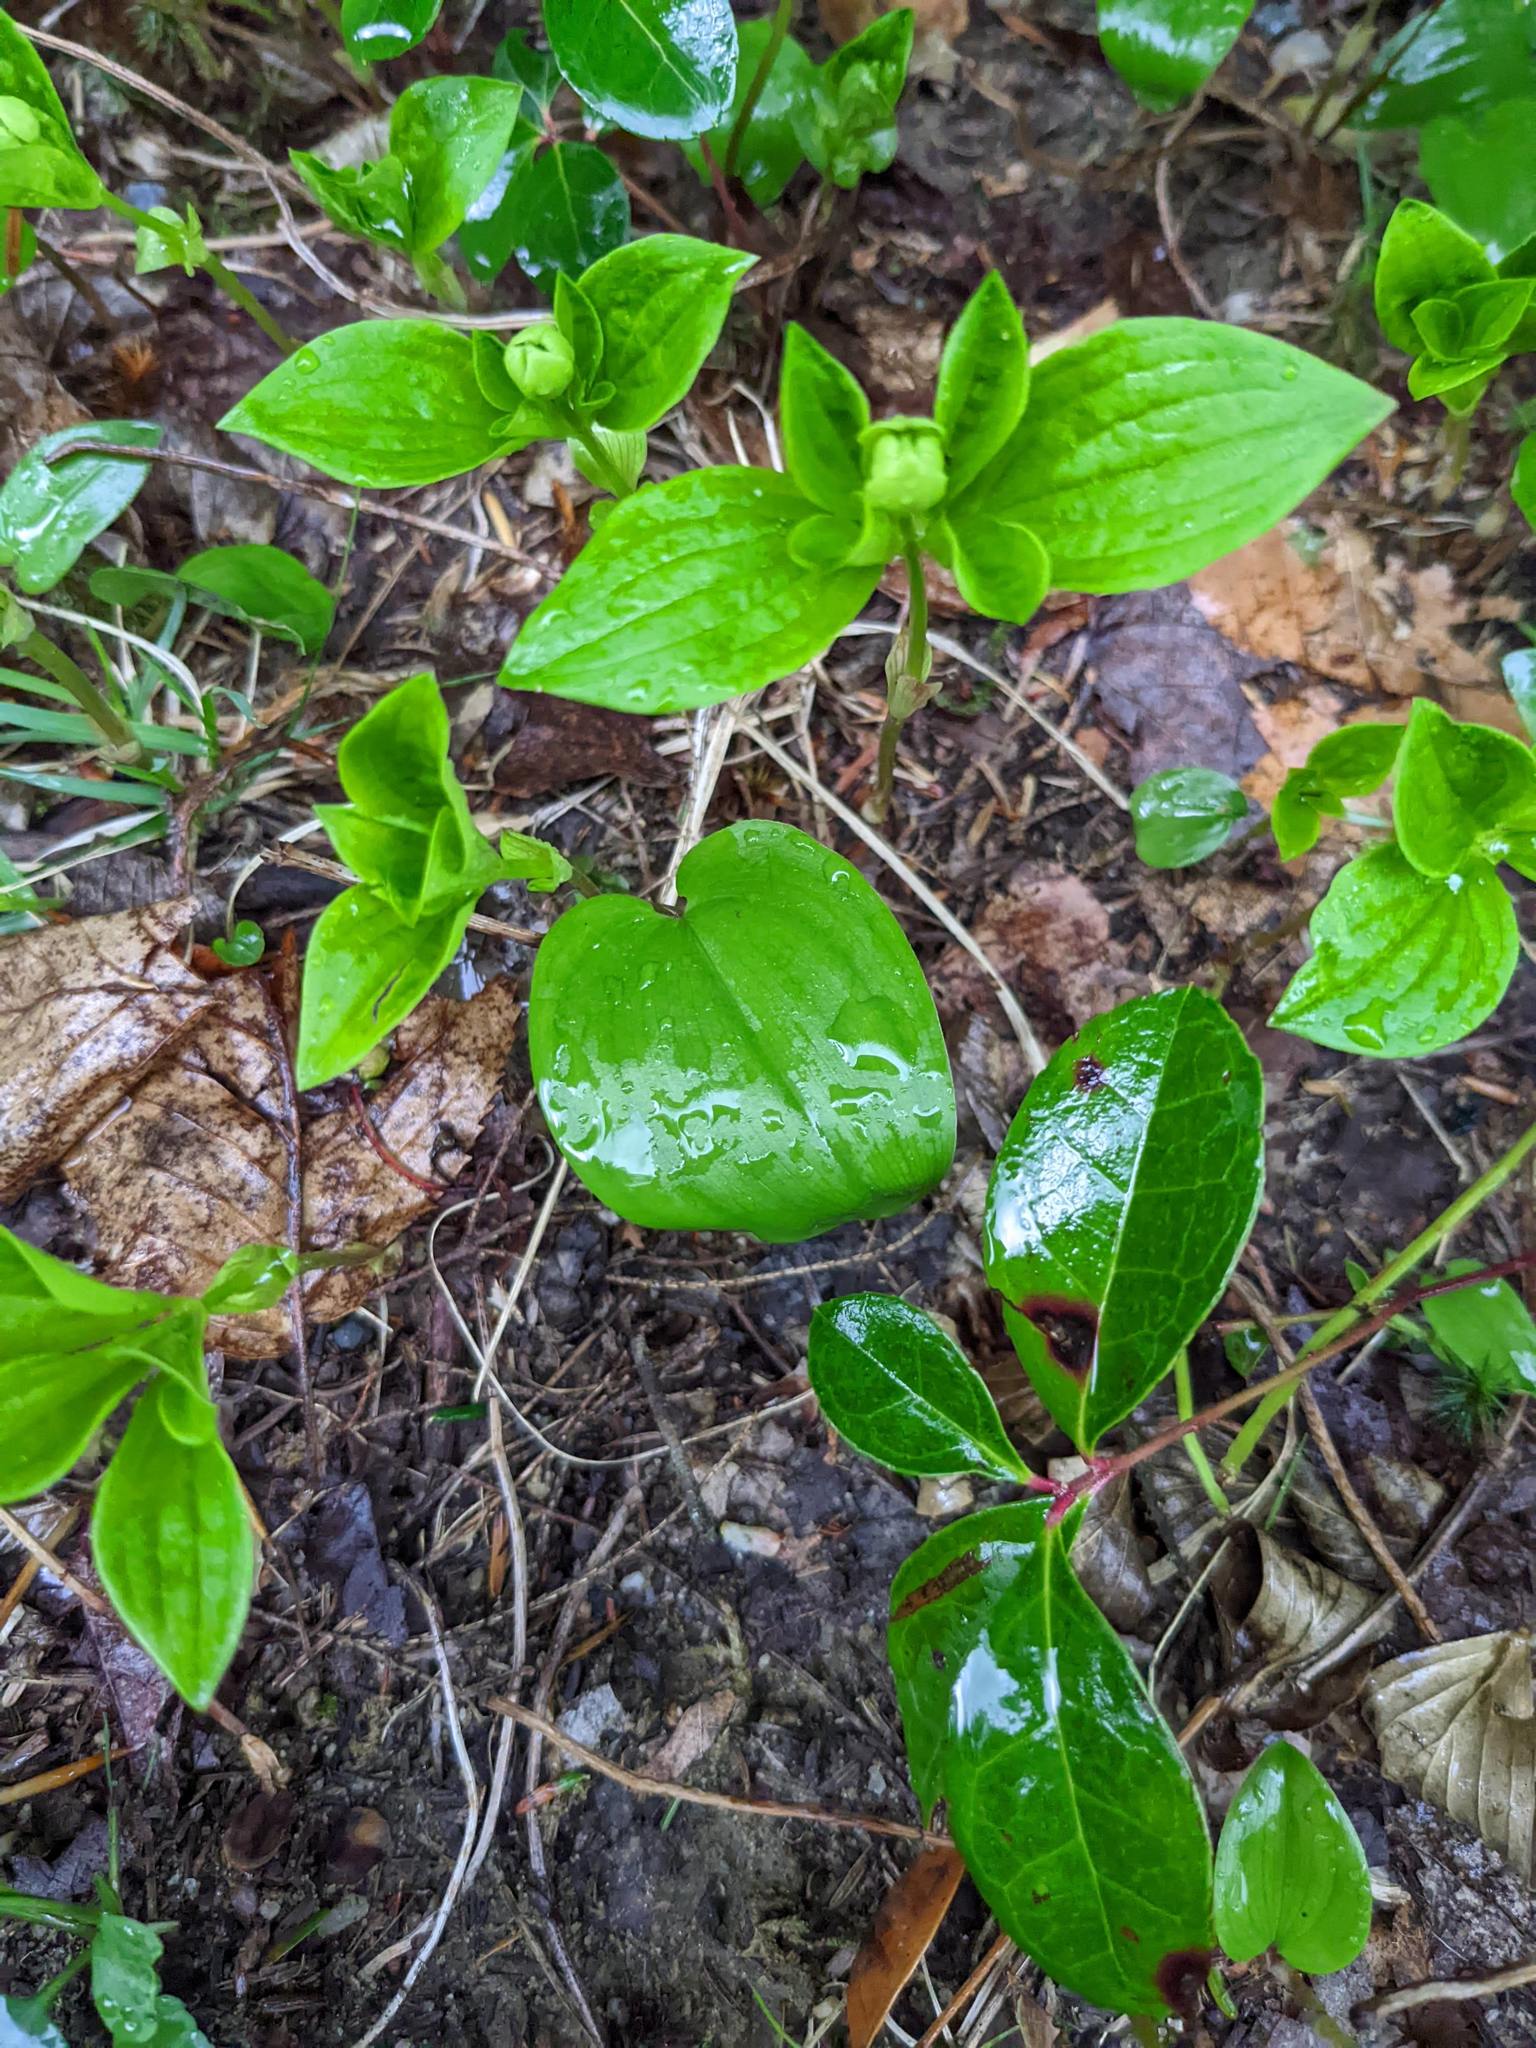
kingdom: Plantae
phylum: Tracheophyta
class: Magnoliopsida
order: Cornales
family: Cornaceae
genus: Cornus
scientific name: Cornus canadensis
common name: Creeping dogwood
